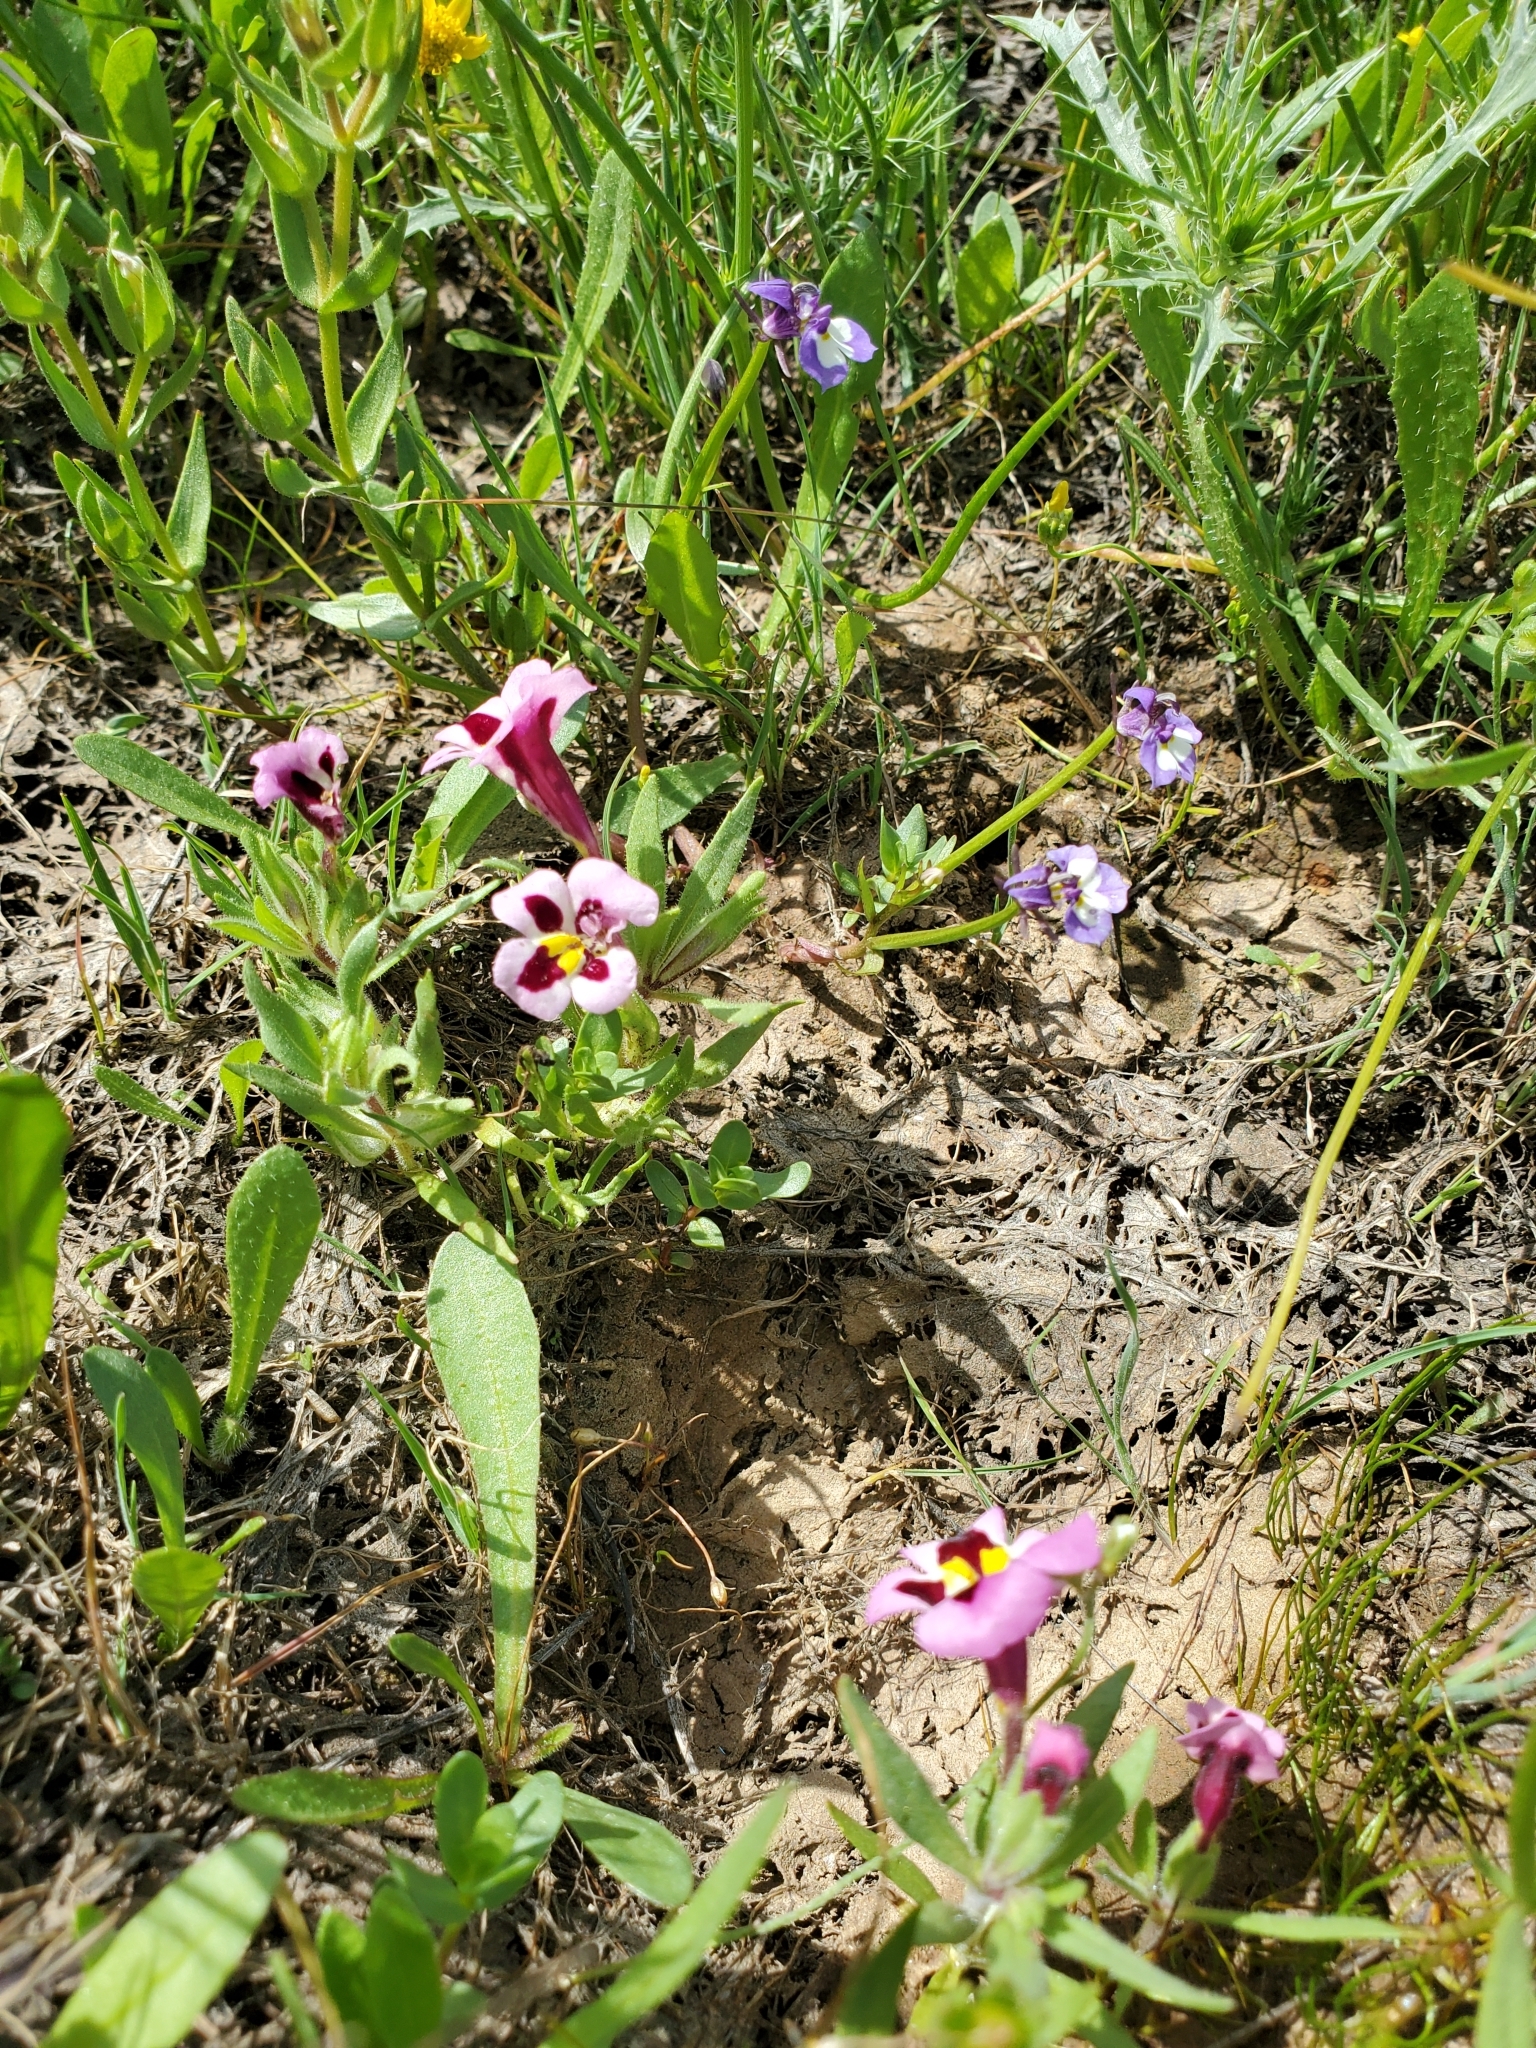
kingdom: Plantae
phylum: Tracheophyta
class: Magnoliopsida
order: Lamiales
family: Phrymaceae
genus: Diplacus
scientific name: Diplacus tricolor
